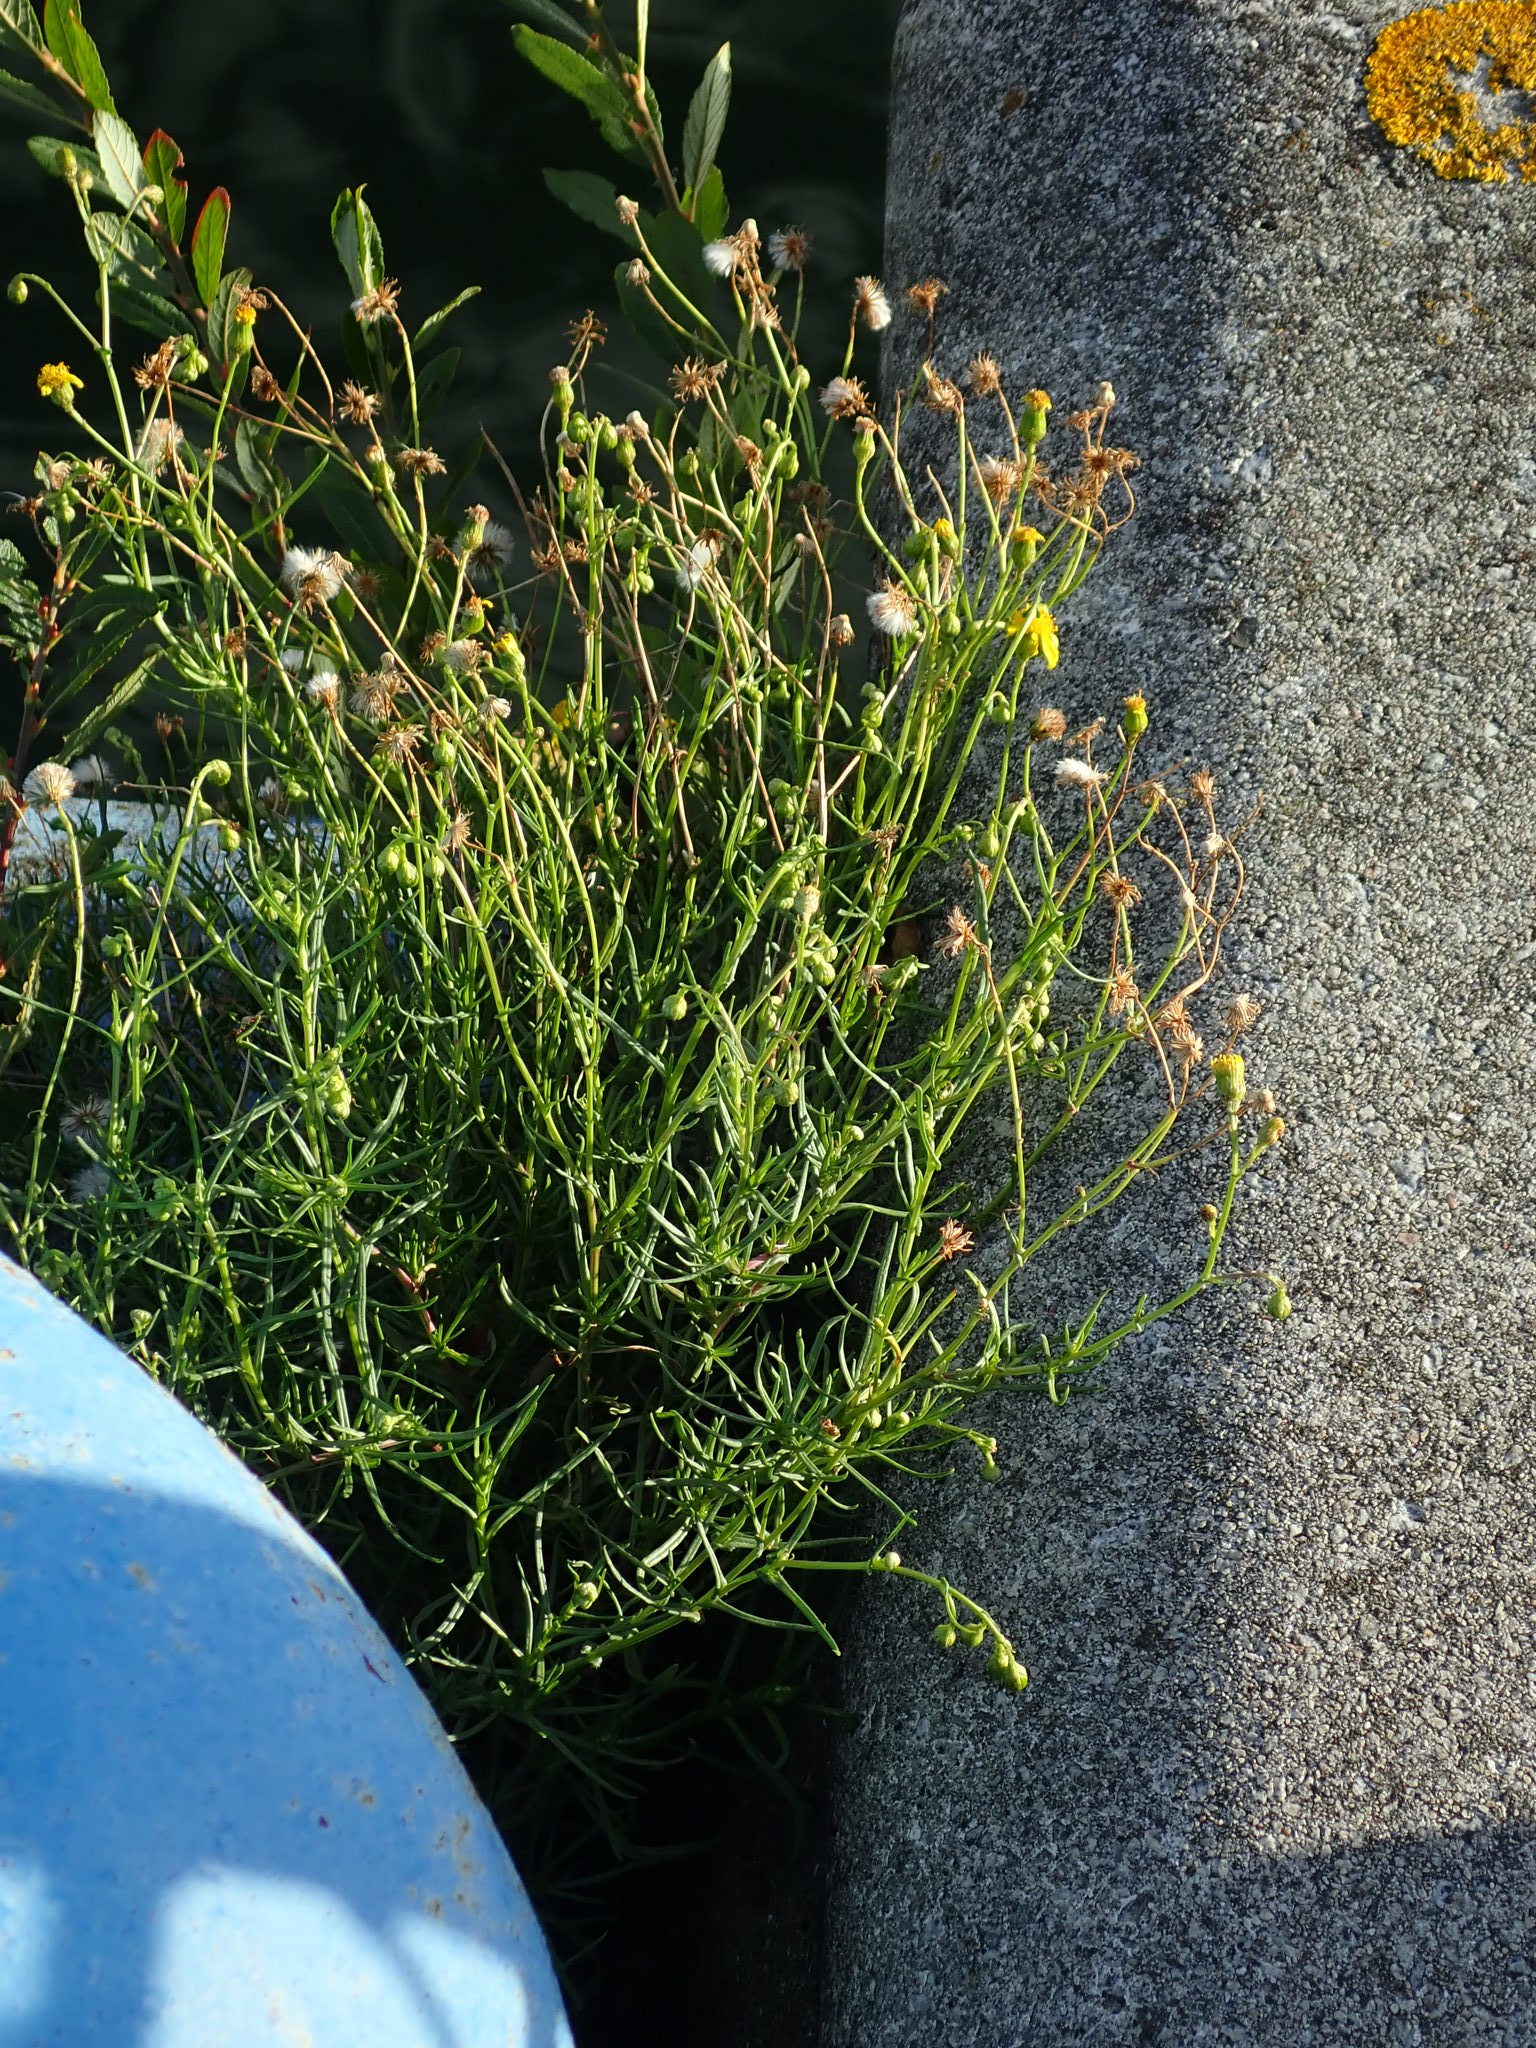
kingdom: Plantae
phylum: Tracheophyta
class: Magnoliopsida
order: Asterales
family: Asteraceae
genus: Senecio
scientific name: Senecio inaequidens
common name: Narrow-leaved ragwort
